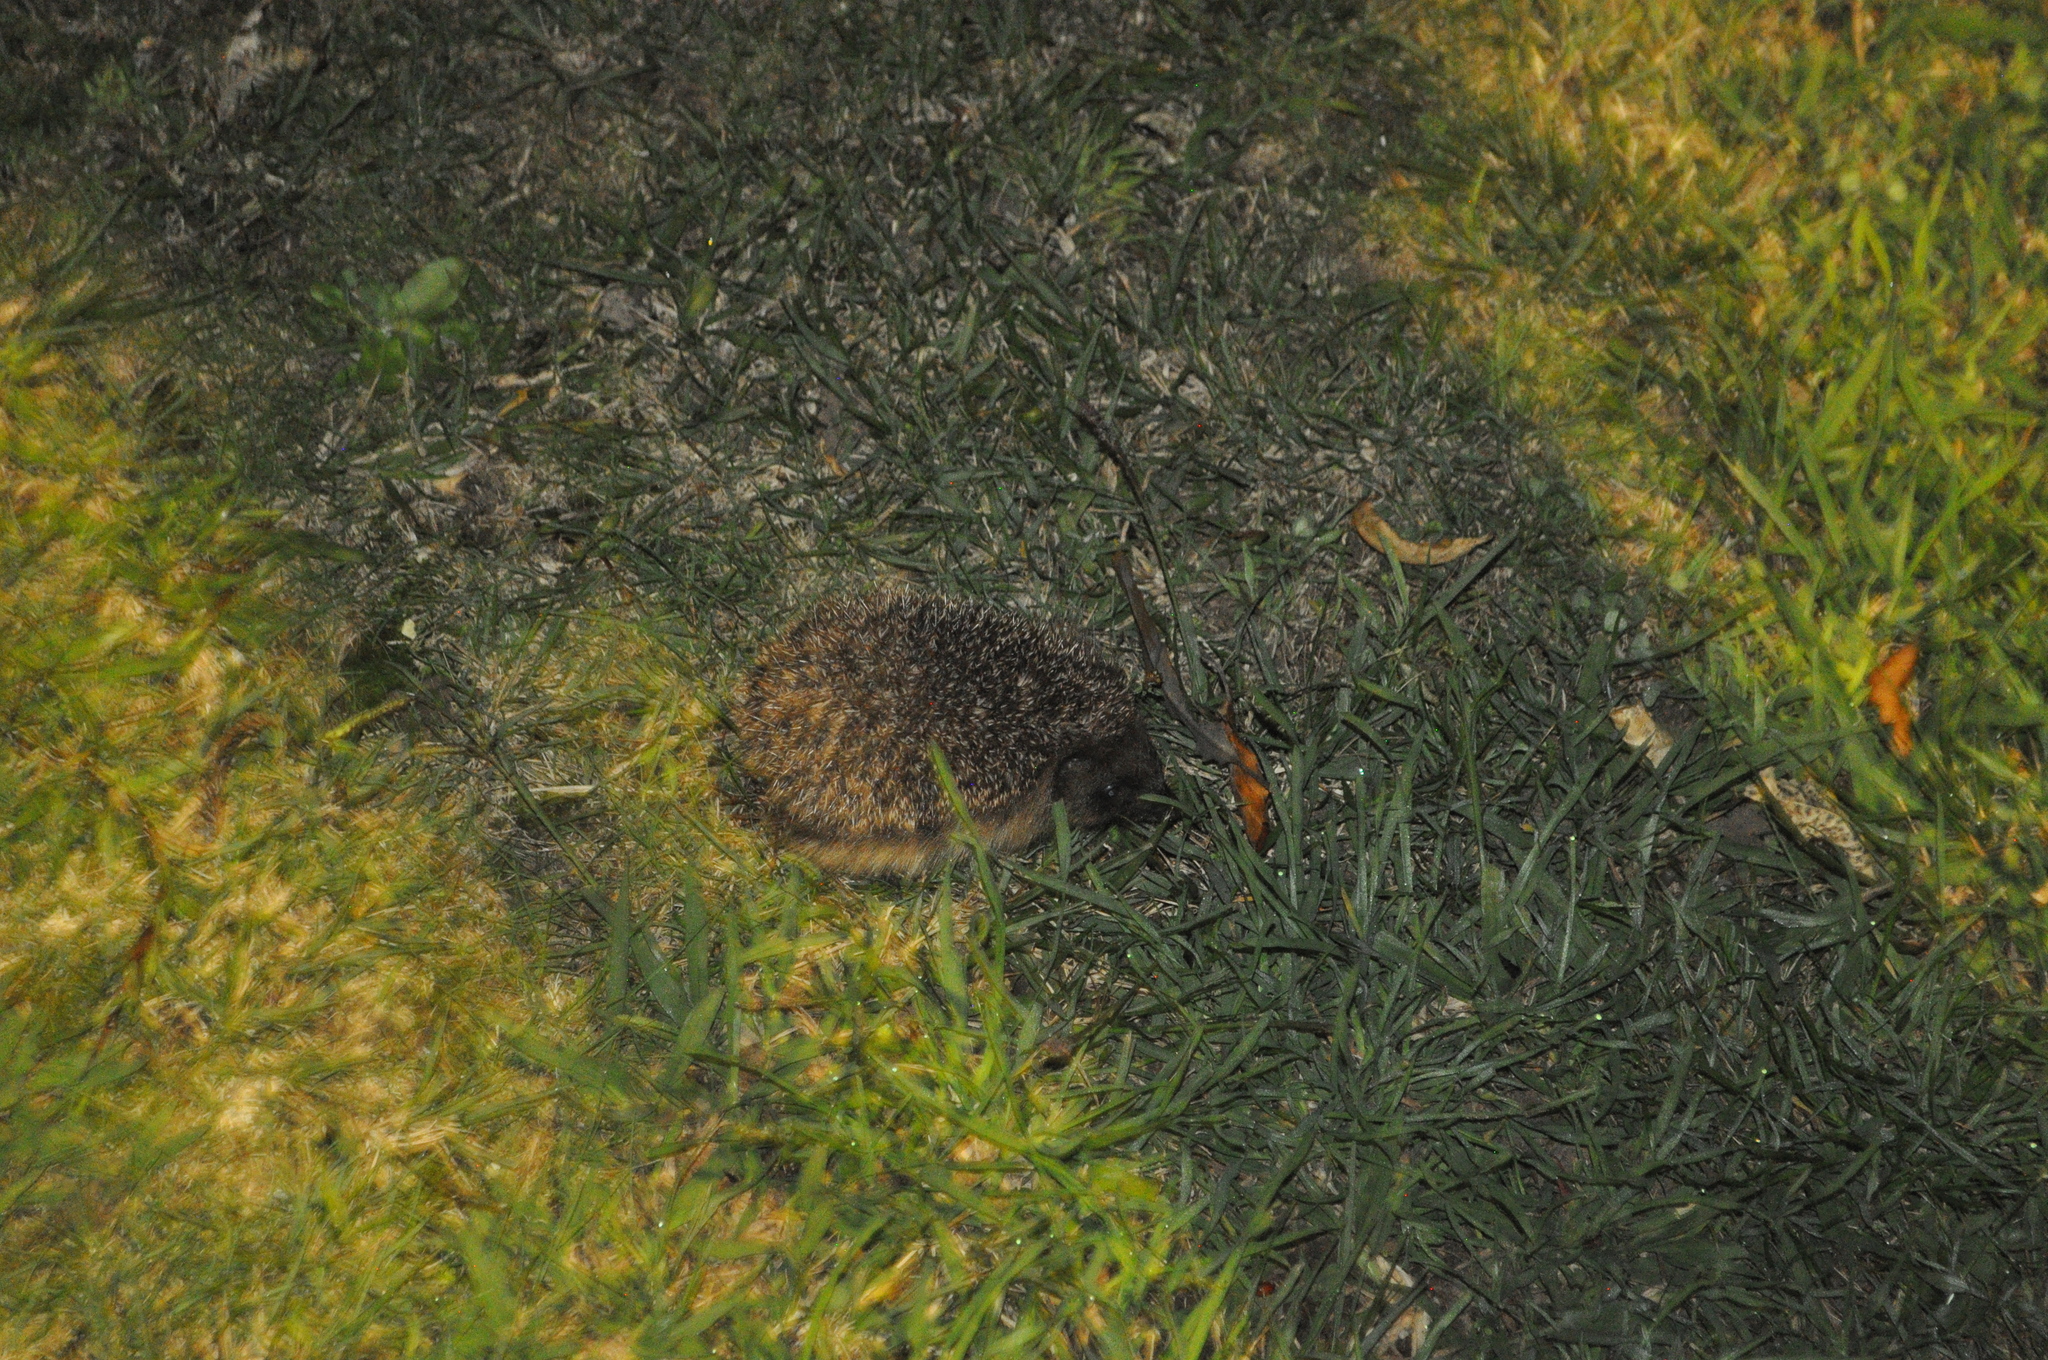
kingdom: Animalia
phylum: Chordata
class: Mammalia
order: Erinaceomorpha
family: Erinaceidae
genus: Erinaceus
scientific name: Erinaceus europaeus
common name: West european hedgehog
